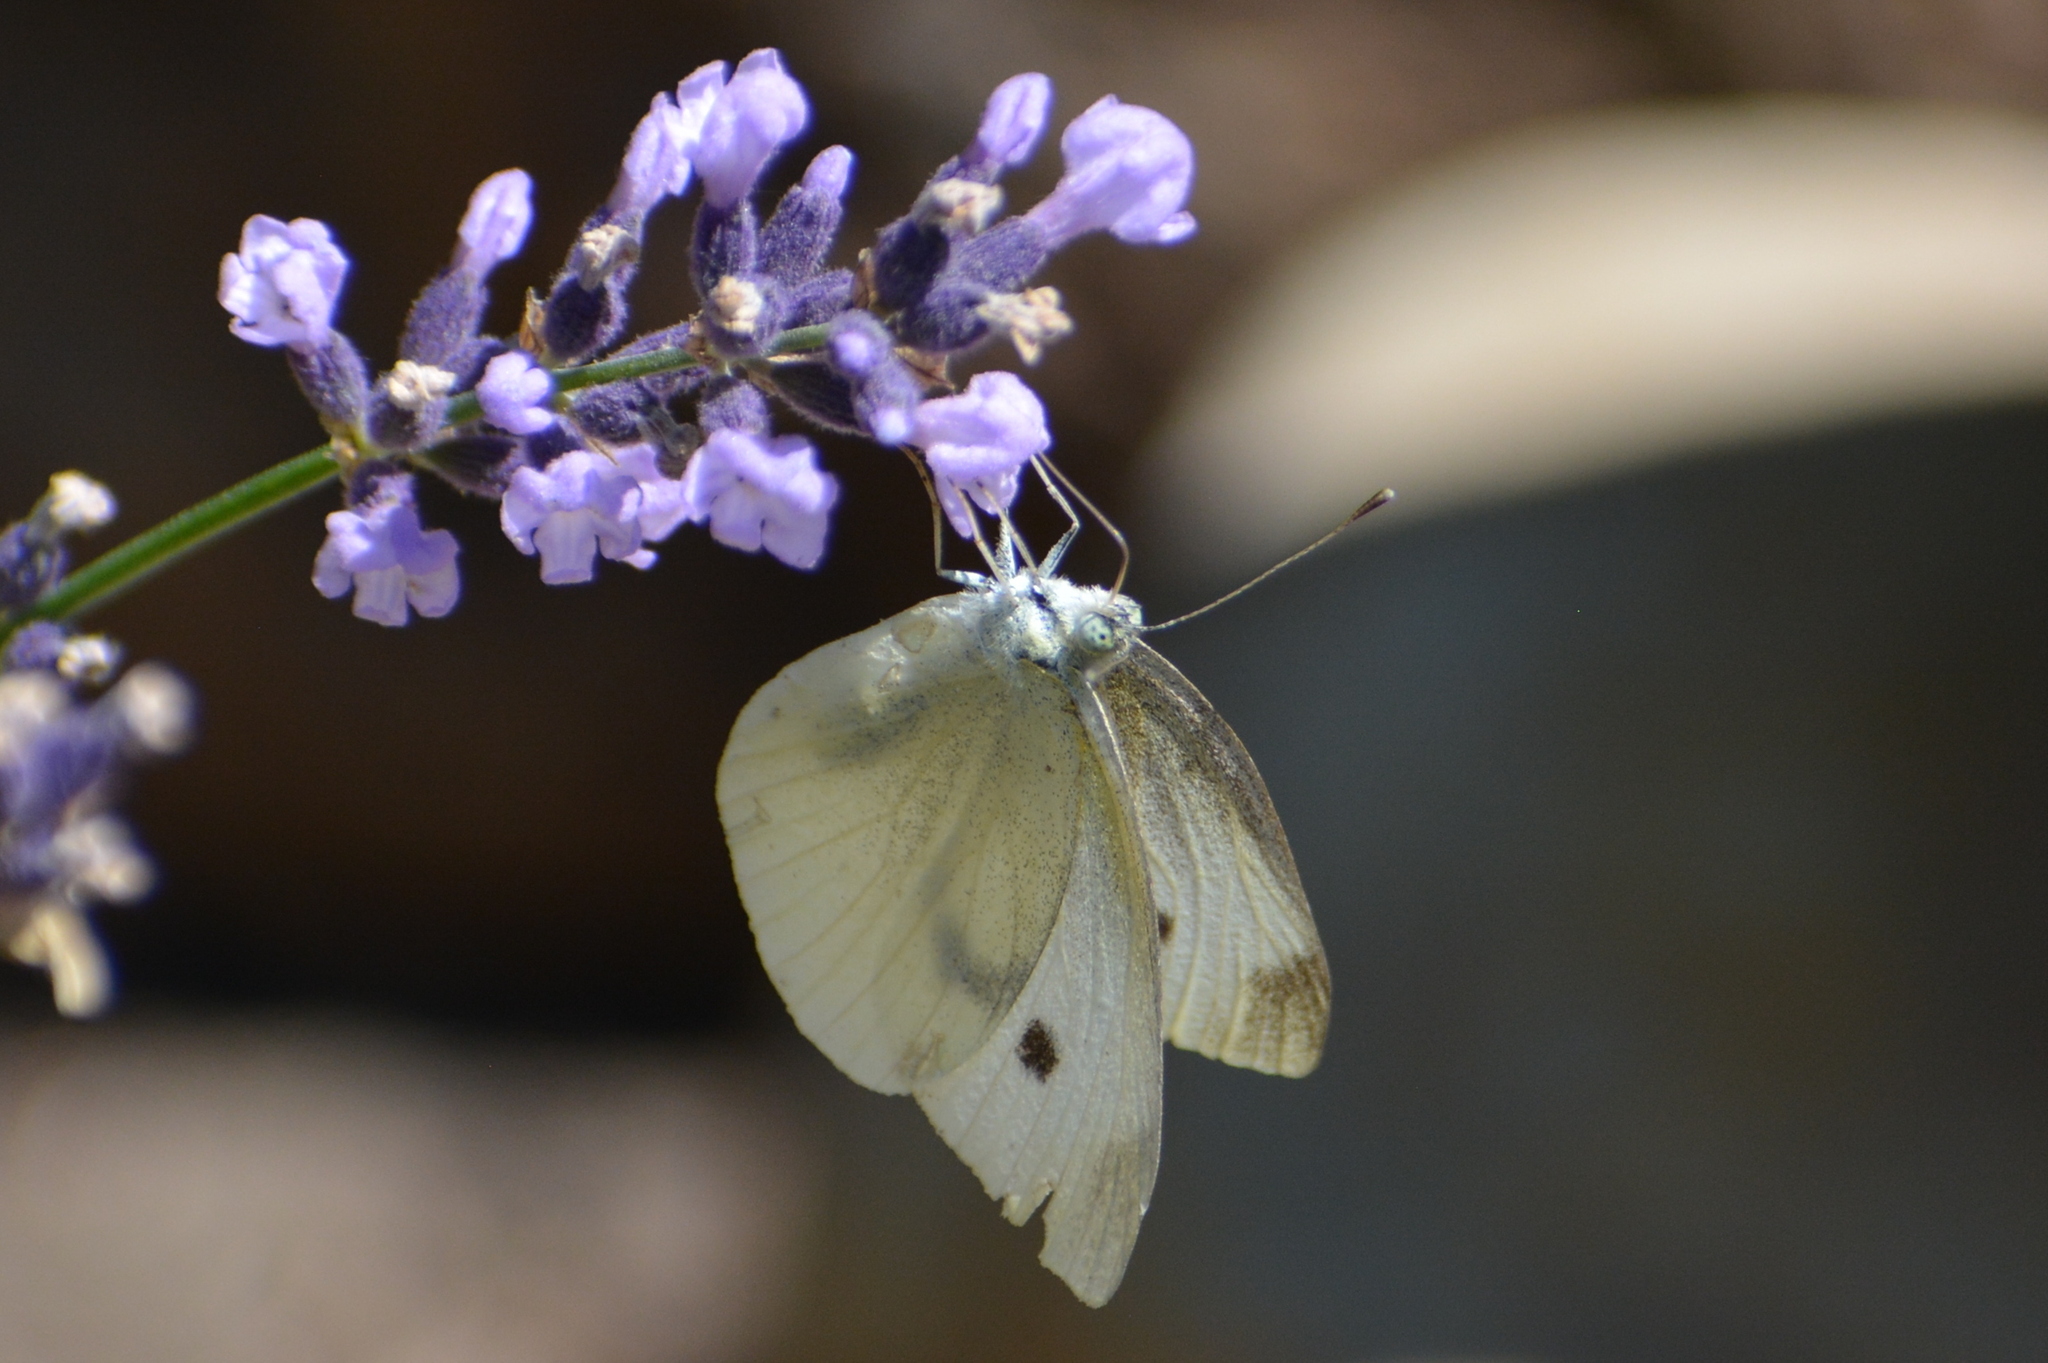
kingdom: Animalia
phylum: Arthropoda
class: Insecta
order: Lepidoptera
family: Pieridae
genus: Pieris
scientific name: Pieris rapae
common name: Small white
